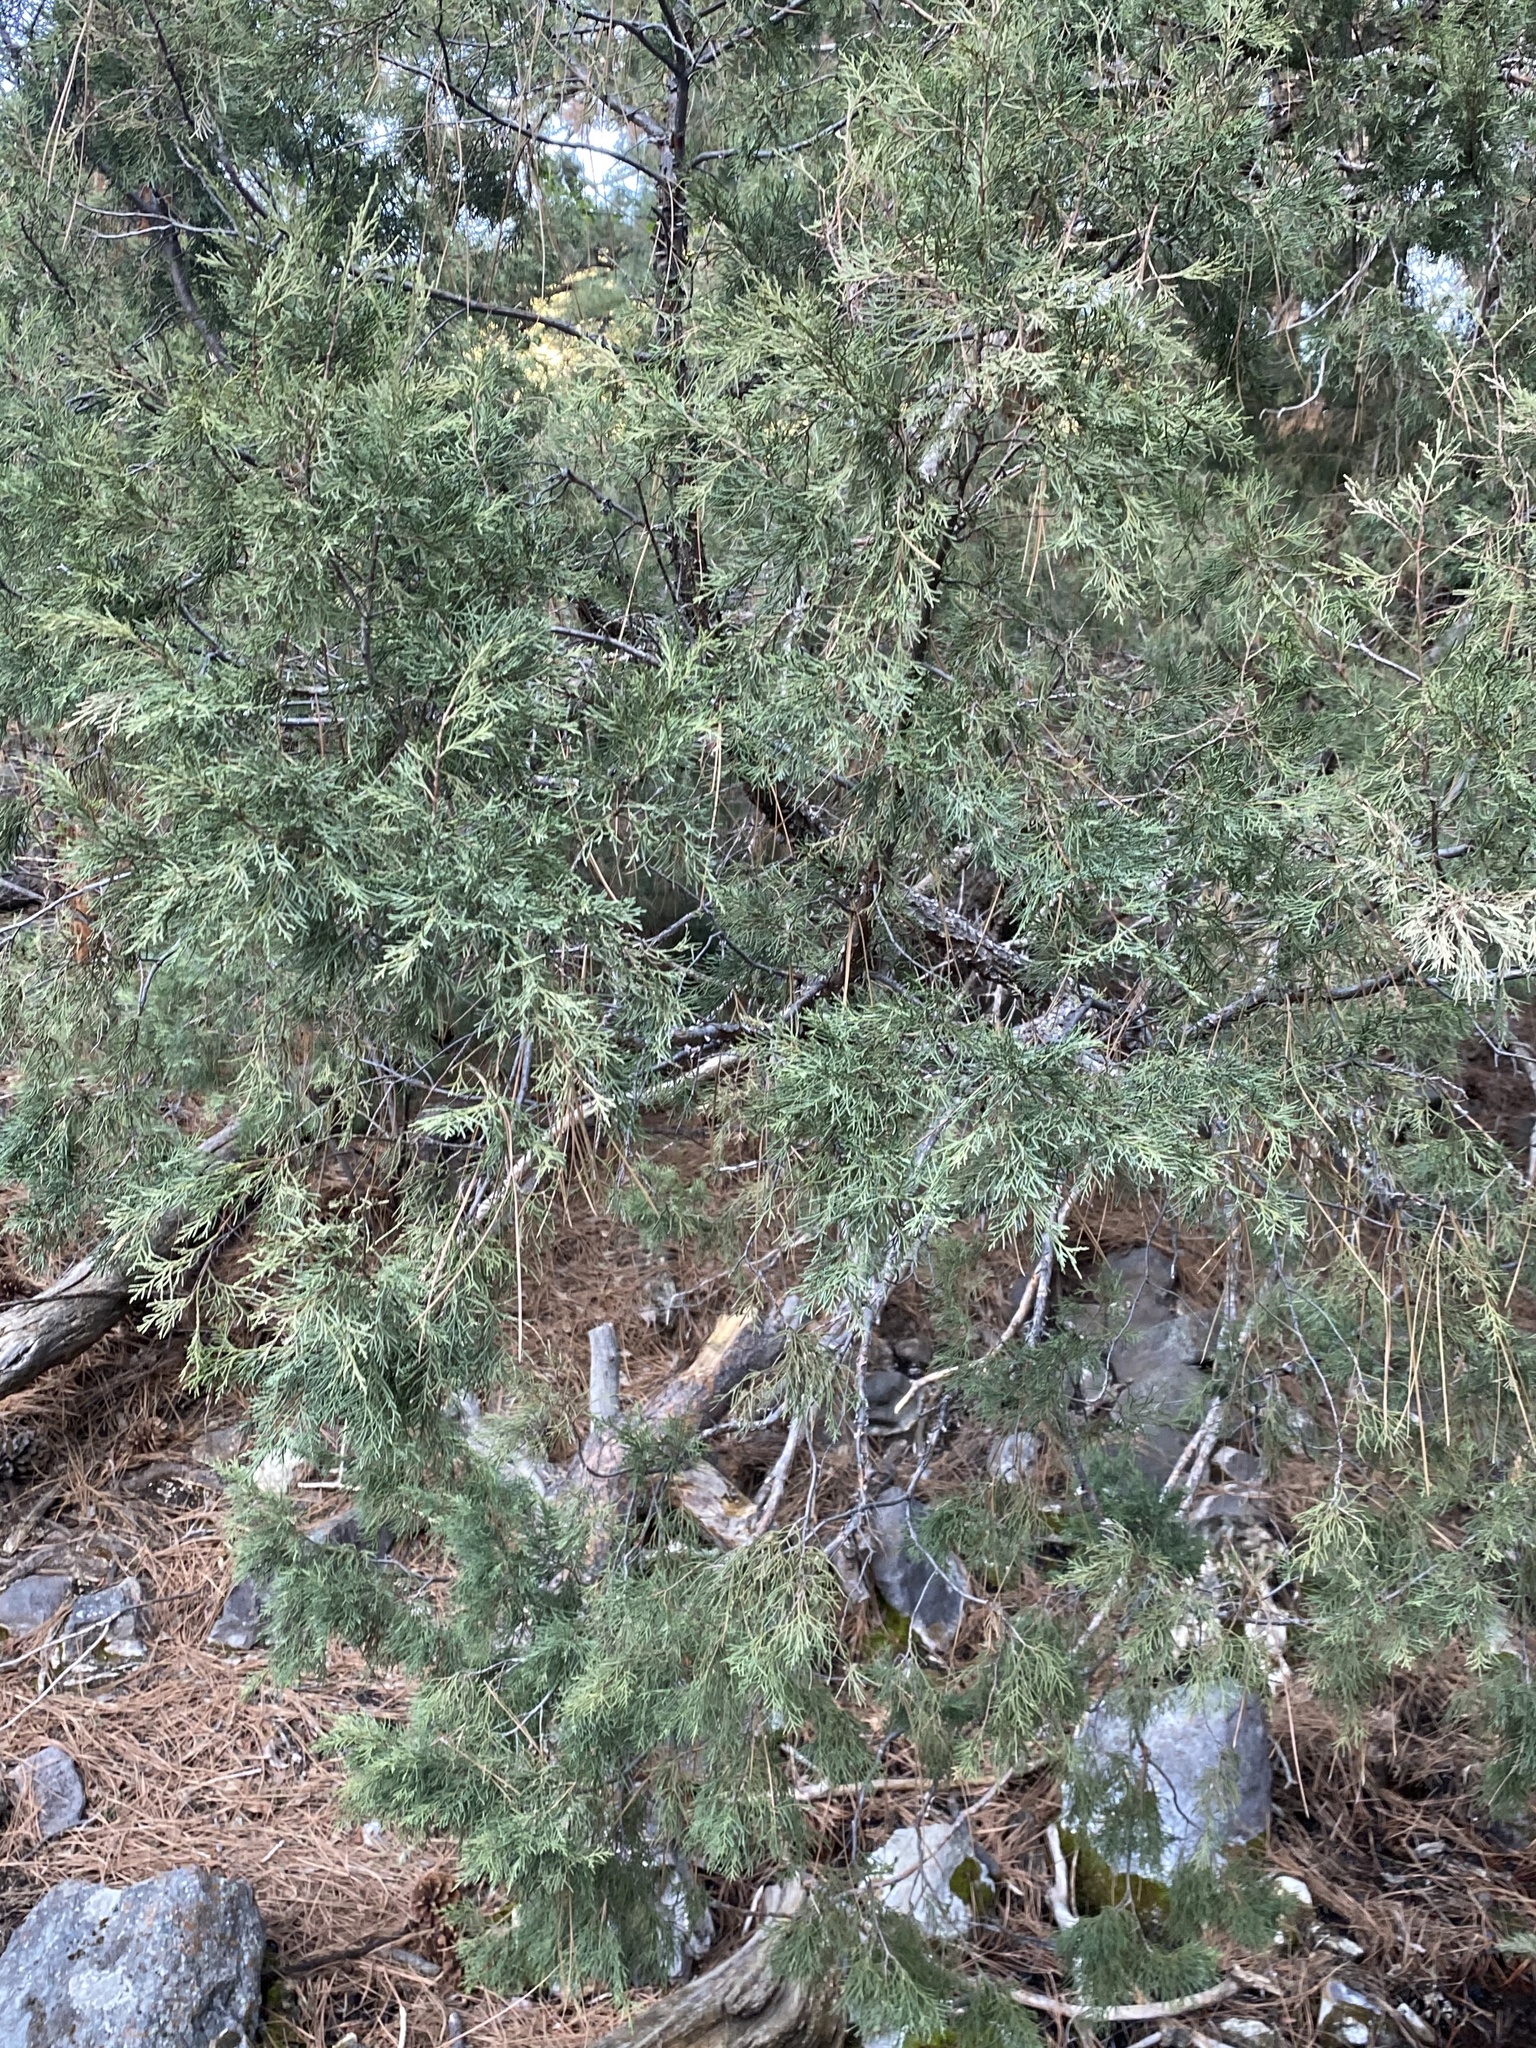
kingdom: Plantae
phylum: Tracheophyta
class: Pinopsida
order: Pinales
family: Cupressaceae
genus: Juniperus
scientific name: Juniperus scopulorum
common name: Rocky mountain juniper
